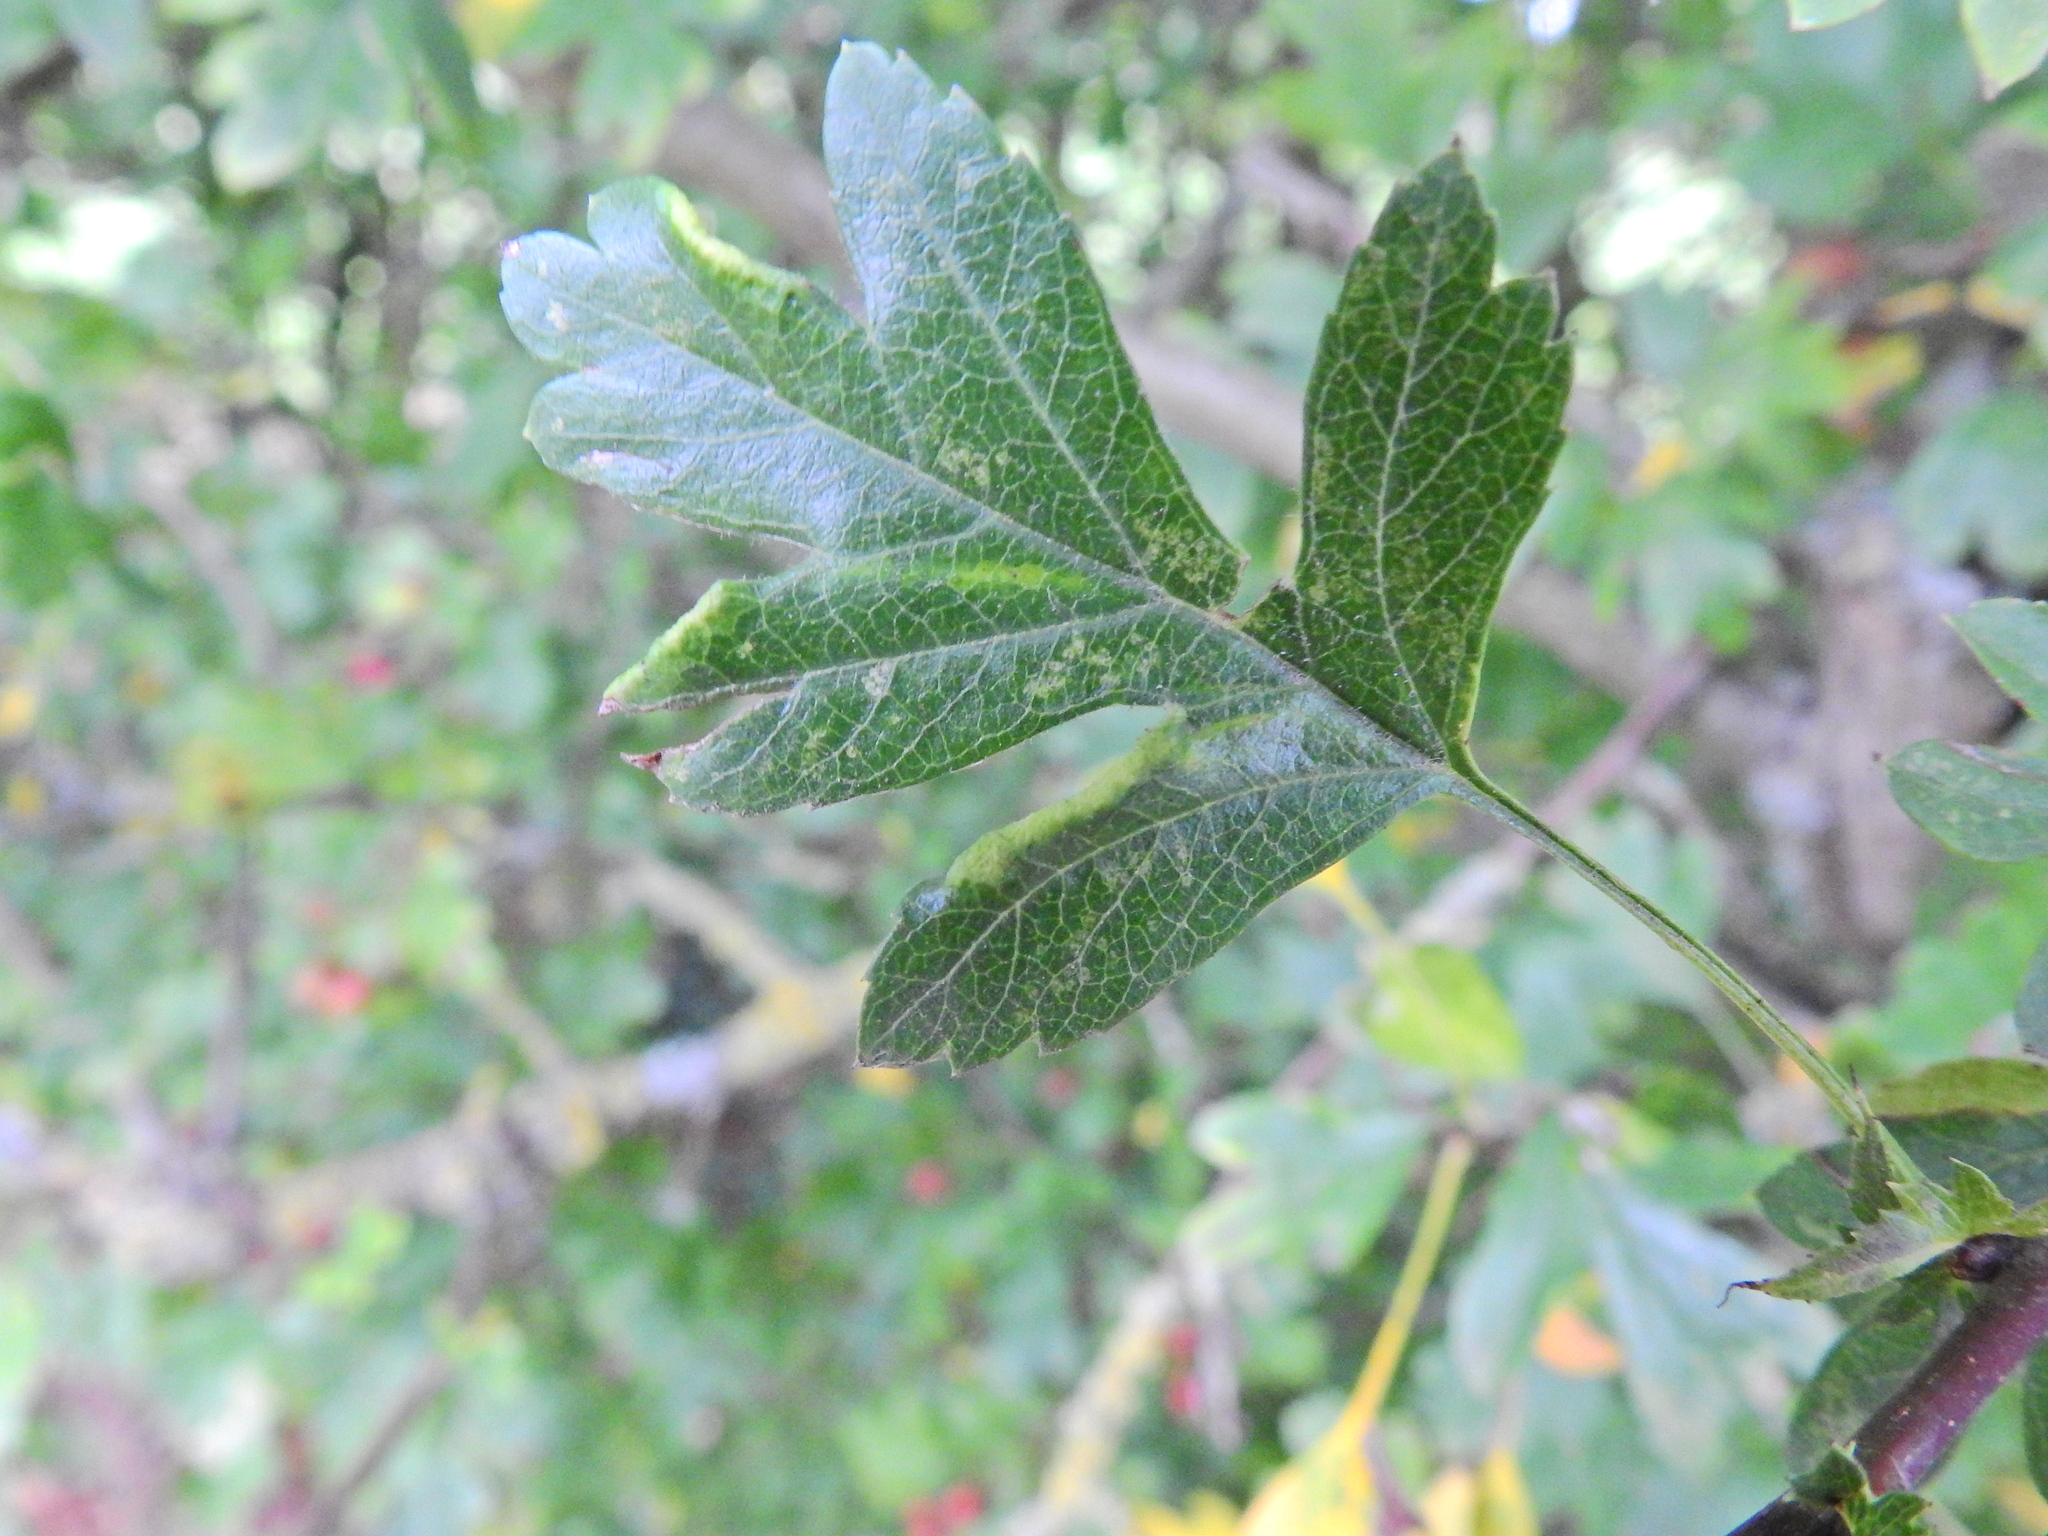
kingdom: Animalia
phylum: Arthropoda
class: Arachnida
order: Trombidiformes
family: Eriophyidae
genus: Phyllocoptes
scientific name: Phyllocoptes goniothorax
